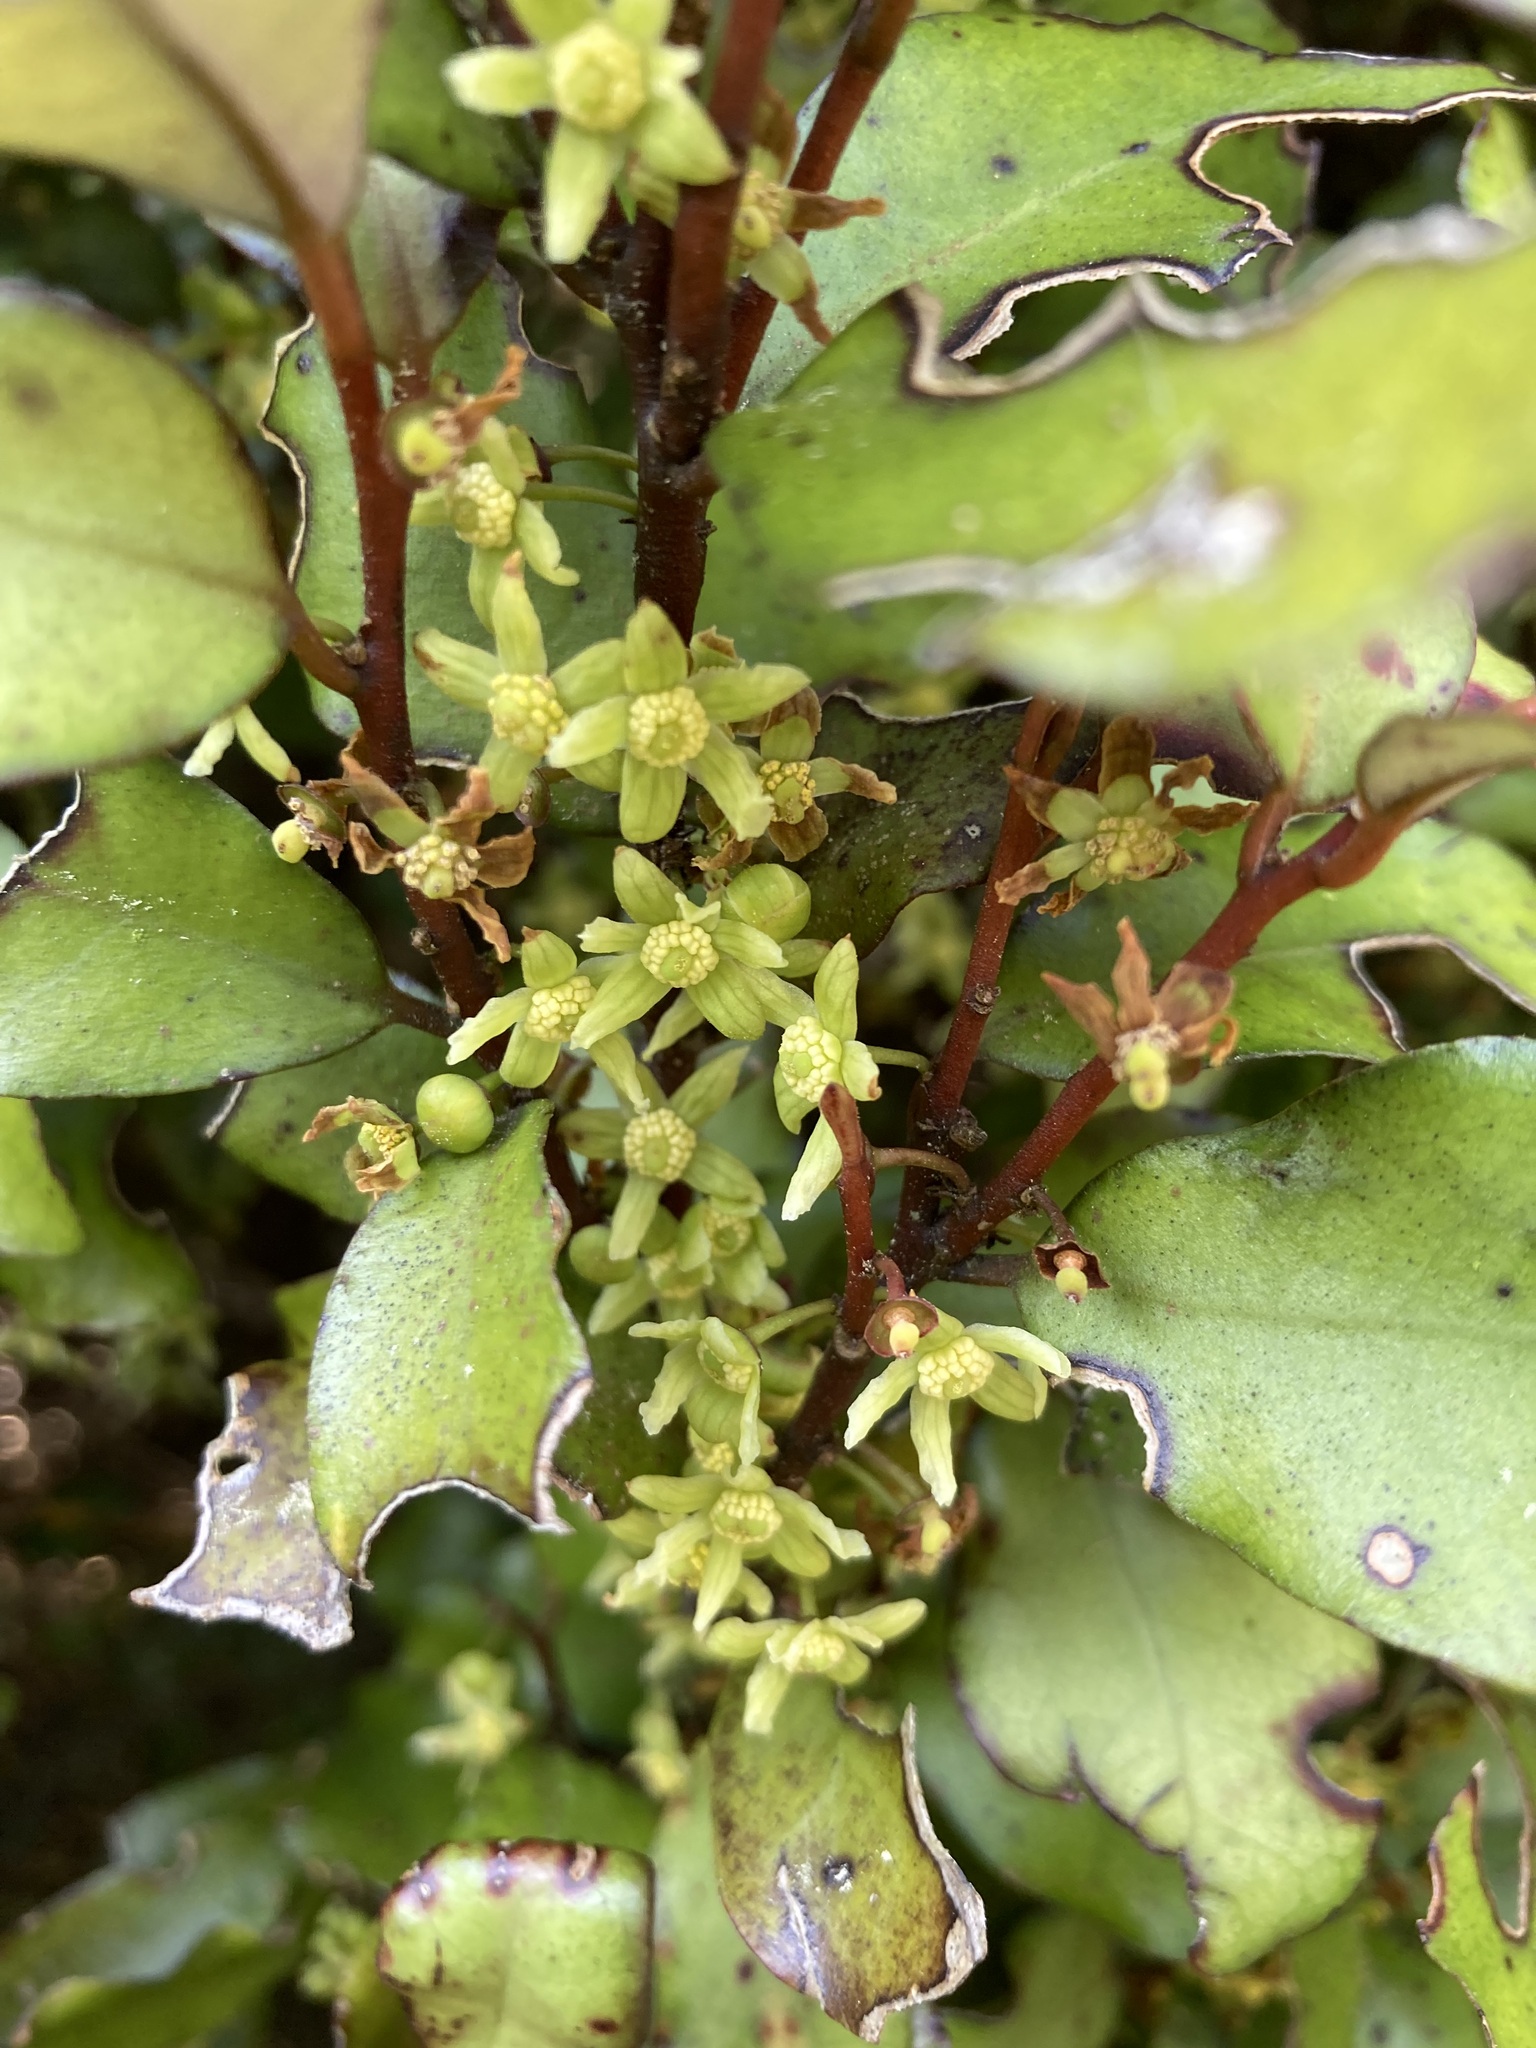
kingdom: Plantae
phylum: Tracheophyta
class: Magnoliopsida
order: Canellales
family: Winteraceae
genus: Pseudowintera
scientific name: Pseudowintera colorata
